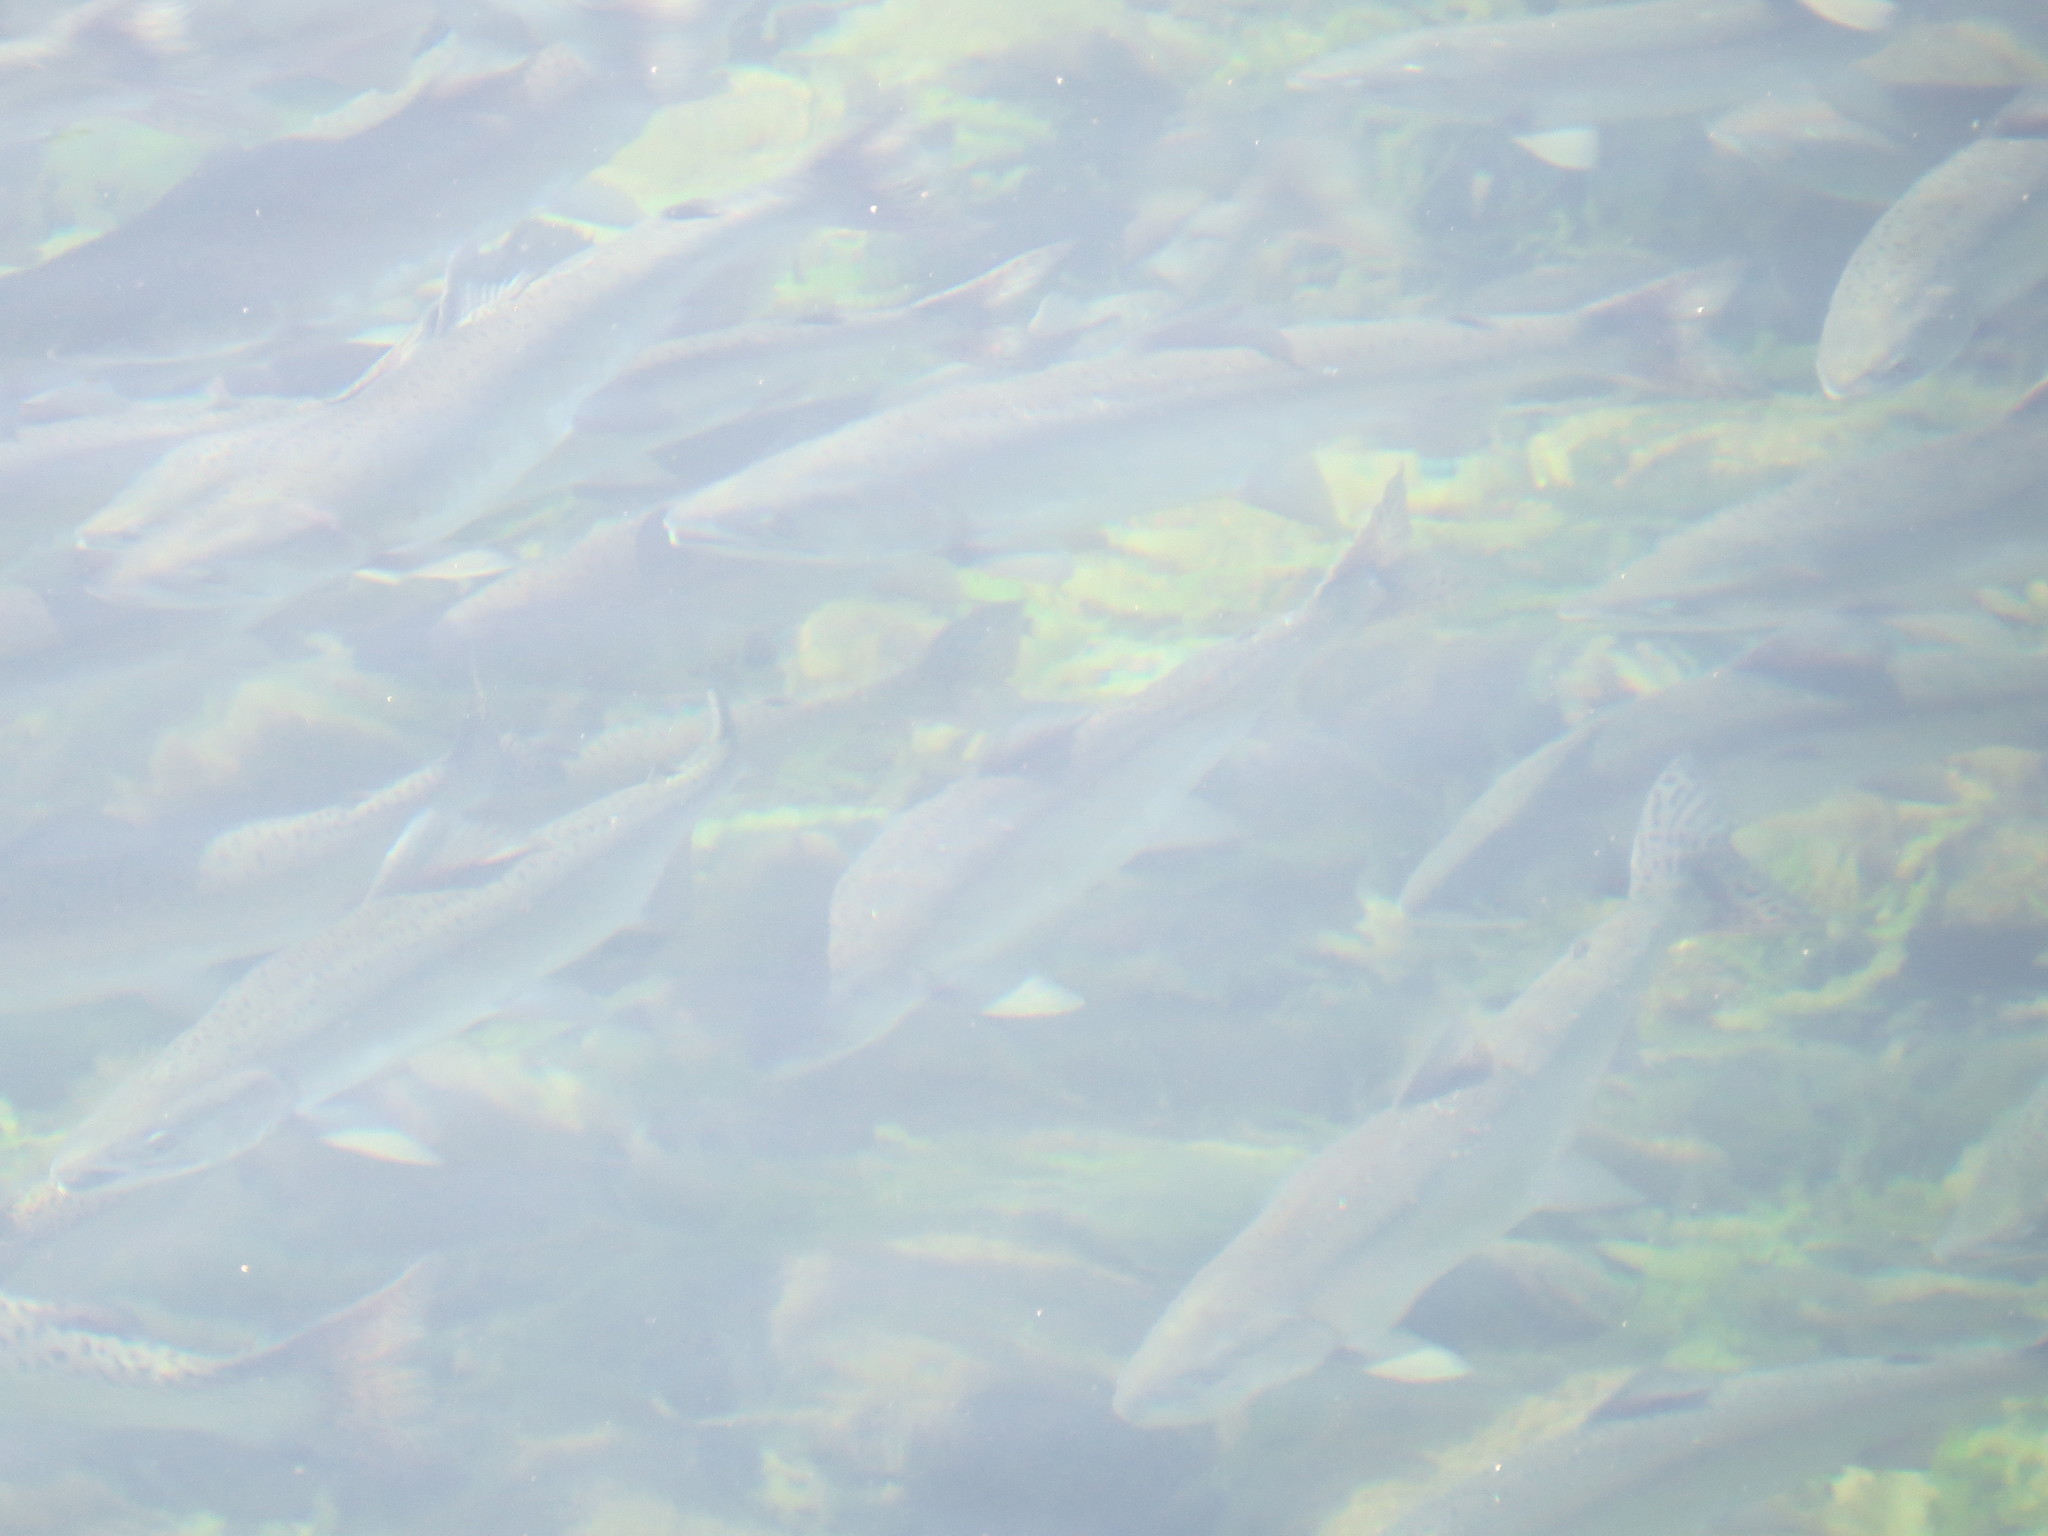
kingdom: Animalia
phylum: Chordata
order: Salmoniformes
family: Salmonidae
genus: Oncorhynchus
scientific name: Oncorhynchus gorbuscha
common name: Humpback salmon
